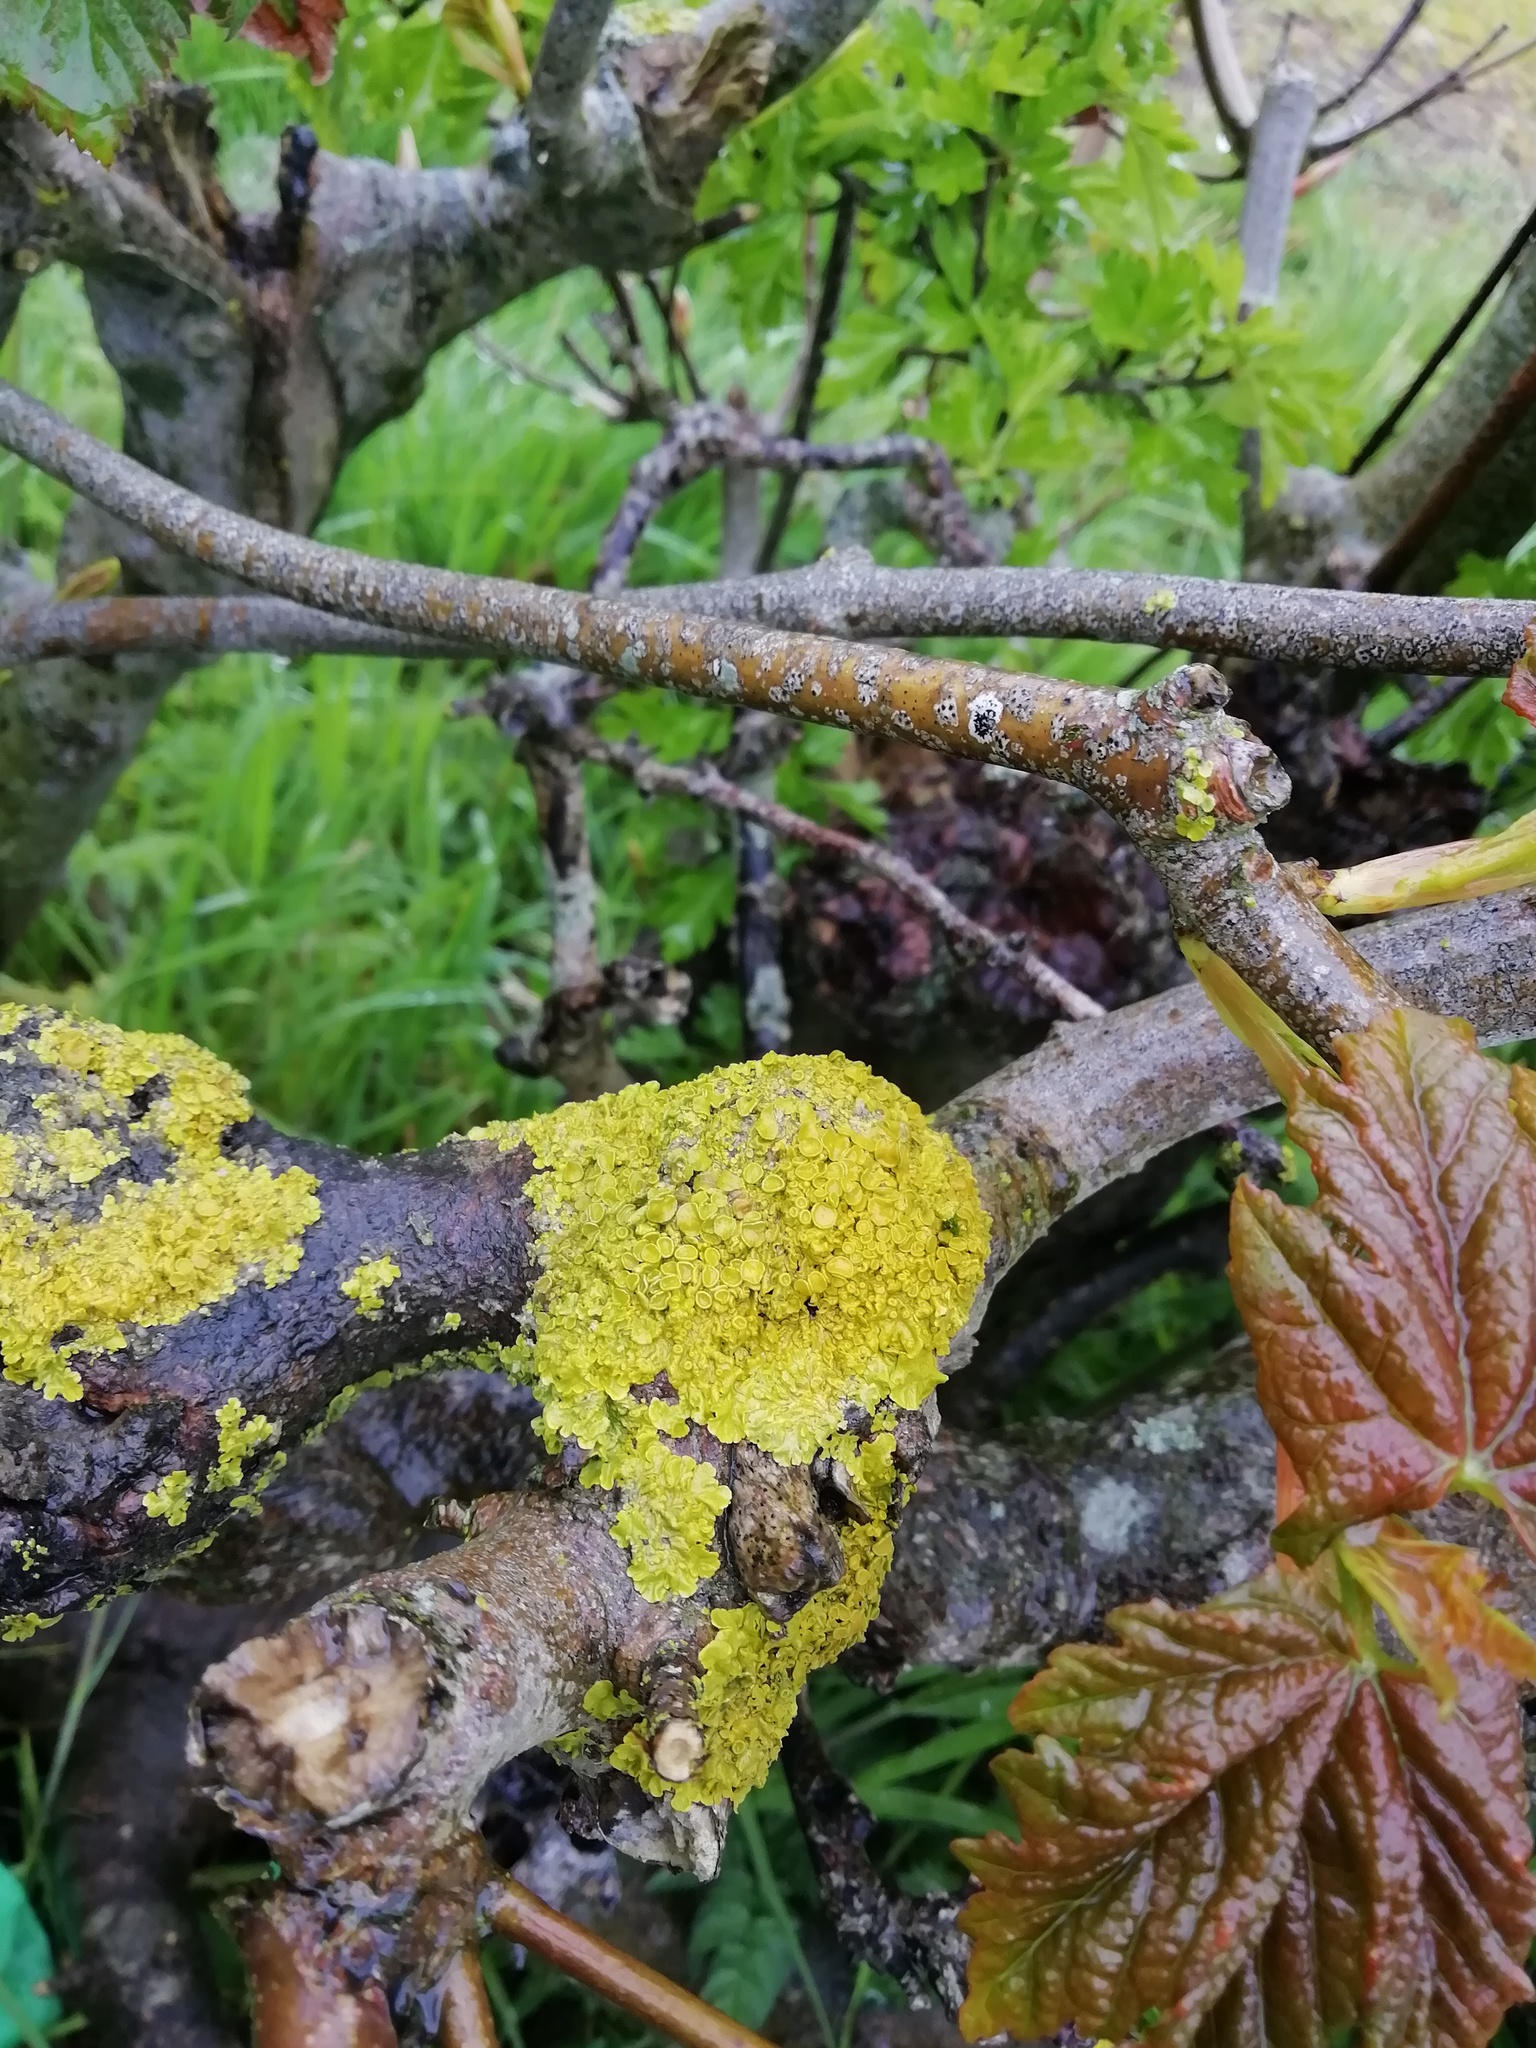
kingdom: Fungi
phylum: Ascomycota
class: Lecanoromycetes
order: Teloschistales
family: Teloschistaceae
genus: Xanthoria
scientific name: Xanthoria parietina
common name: Common orange lichen
